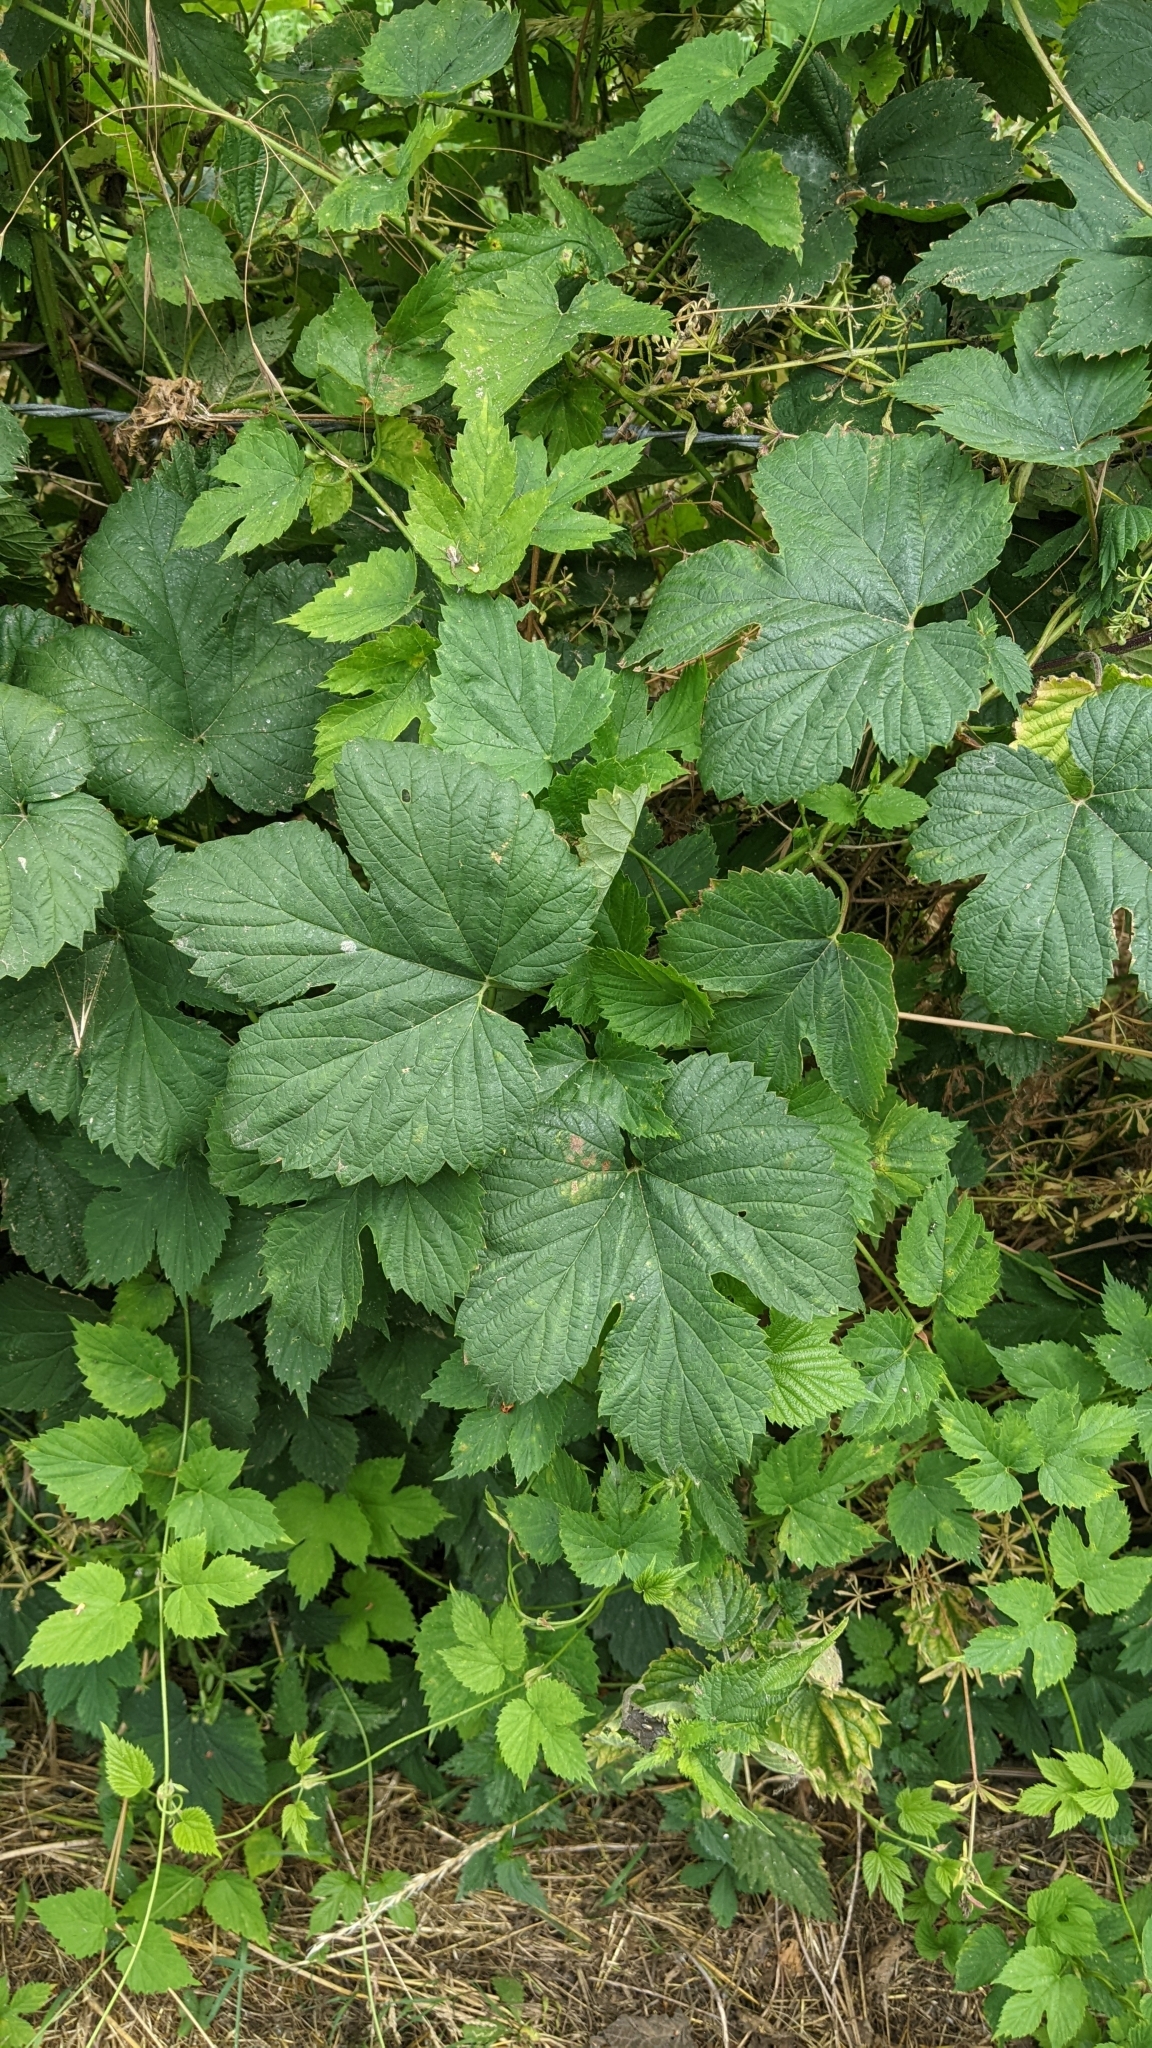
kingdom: Plantae
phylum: Tracheophyta
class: Magnoliopsida
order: Rosales
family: Cannabaceae
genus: Humulus
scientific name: Humulus lupulus
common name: Hop
